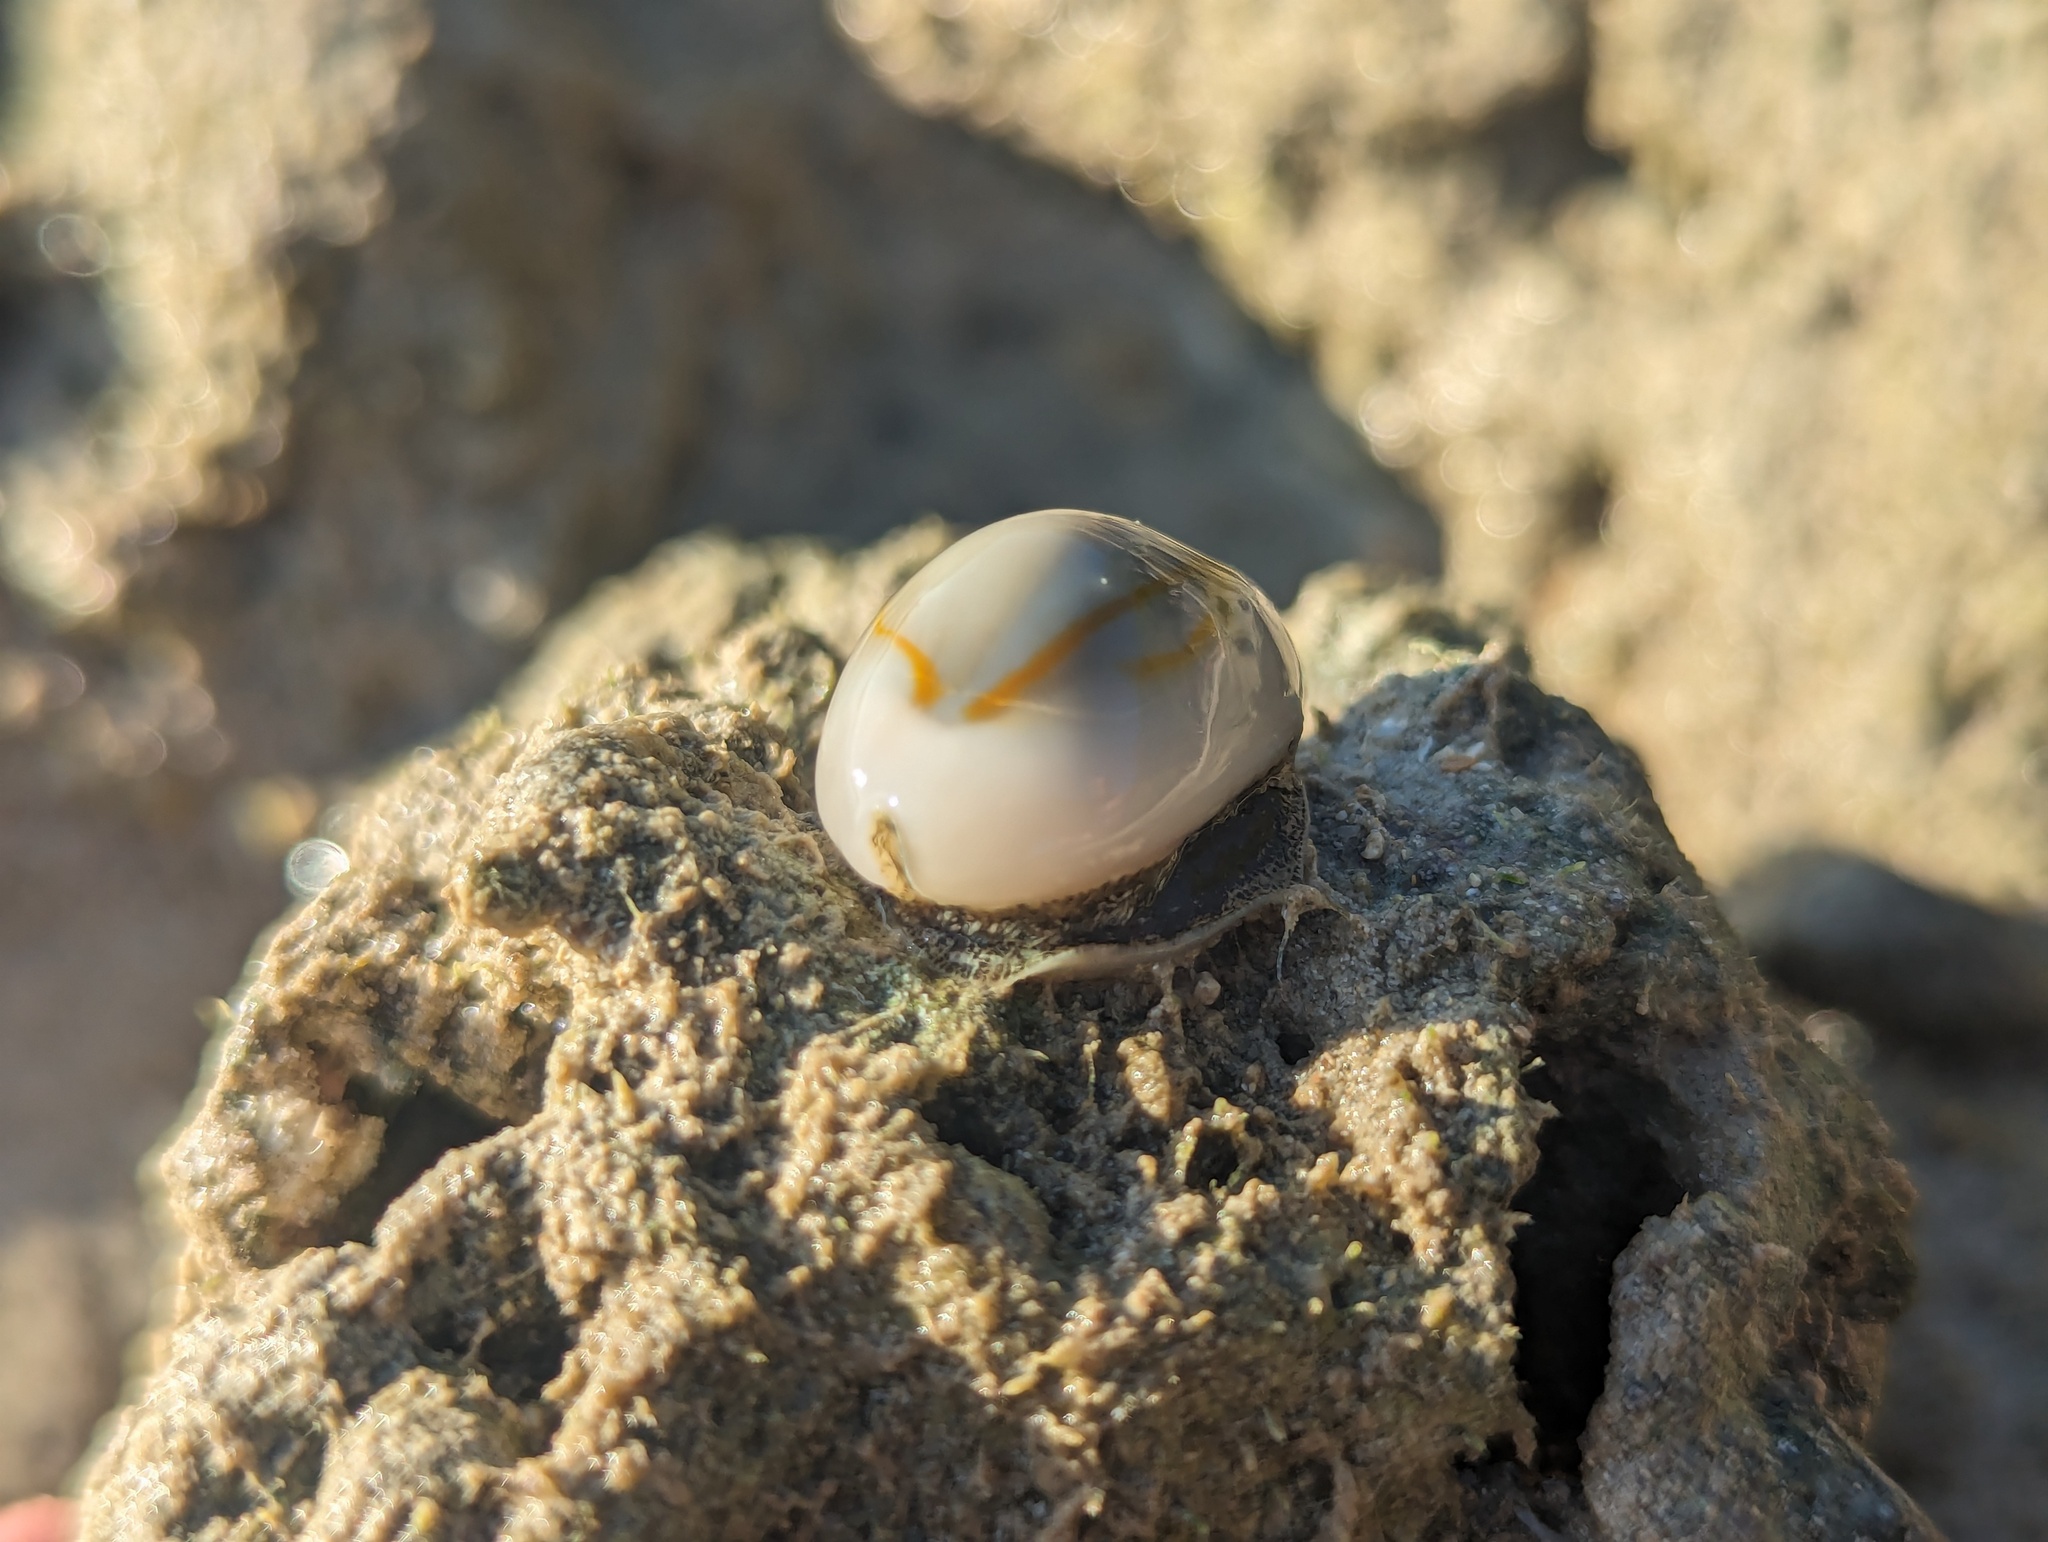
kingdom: Animalia
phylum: Mollusca
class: Gastropoda
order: Littorinimorpha
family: Cypraeidae
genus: Monetaria
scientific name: Monetaria annulus
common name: Ring cowrie
